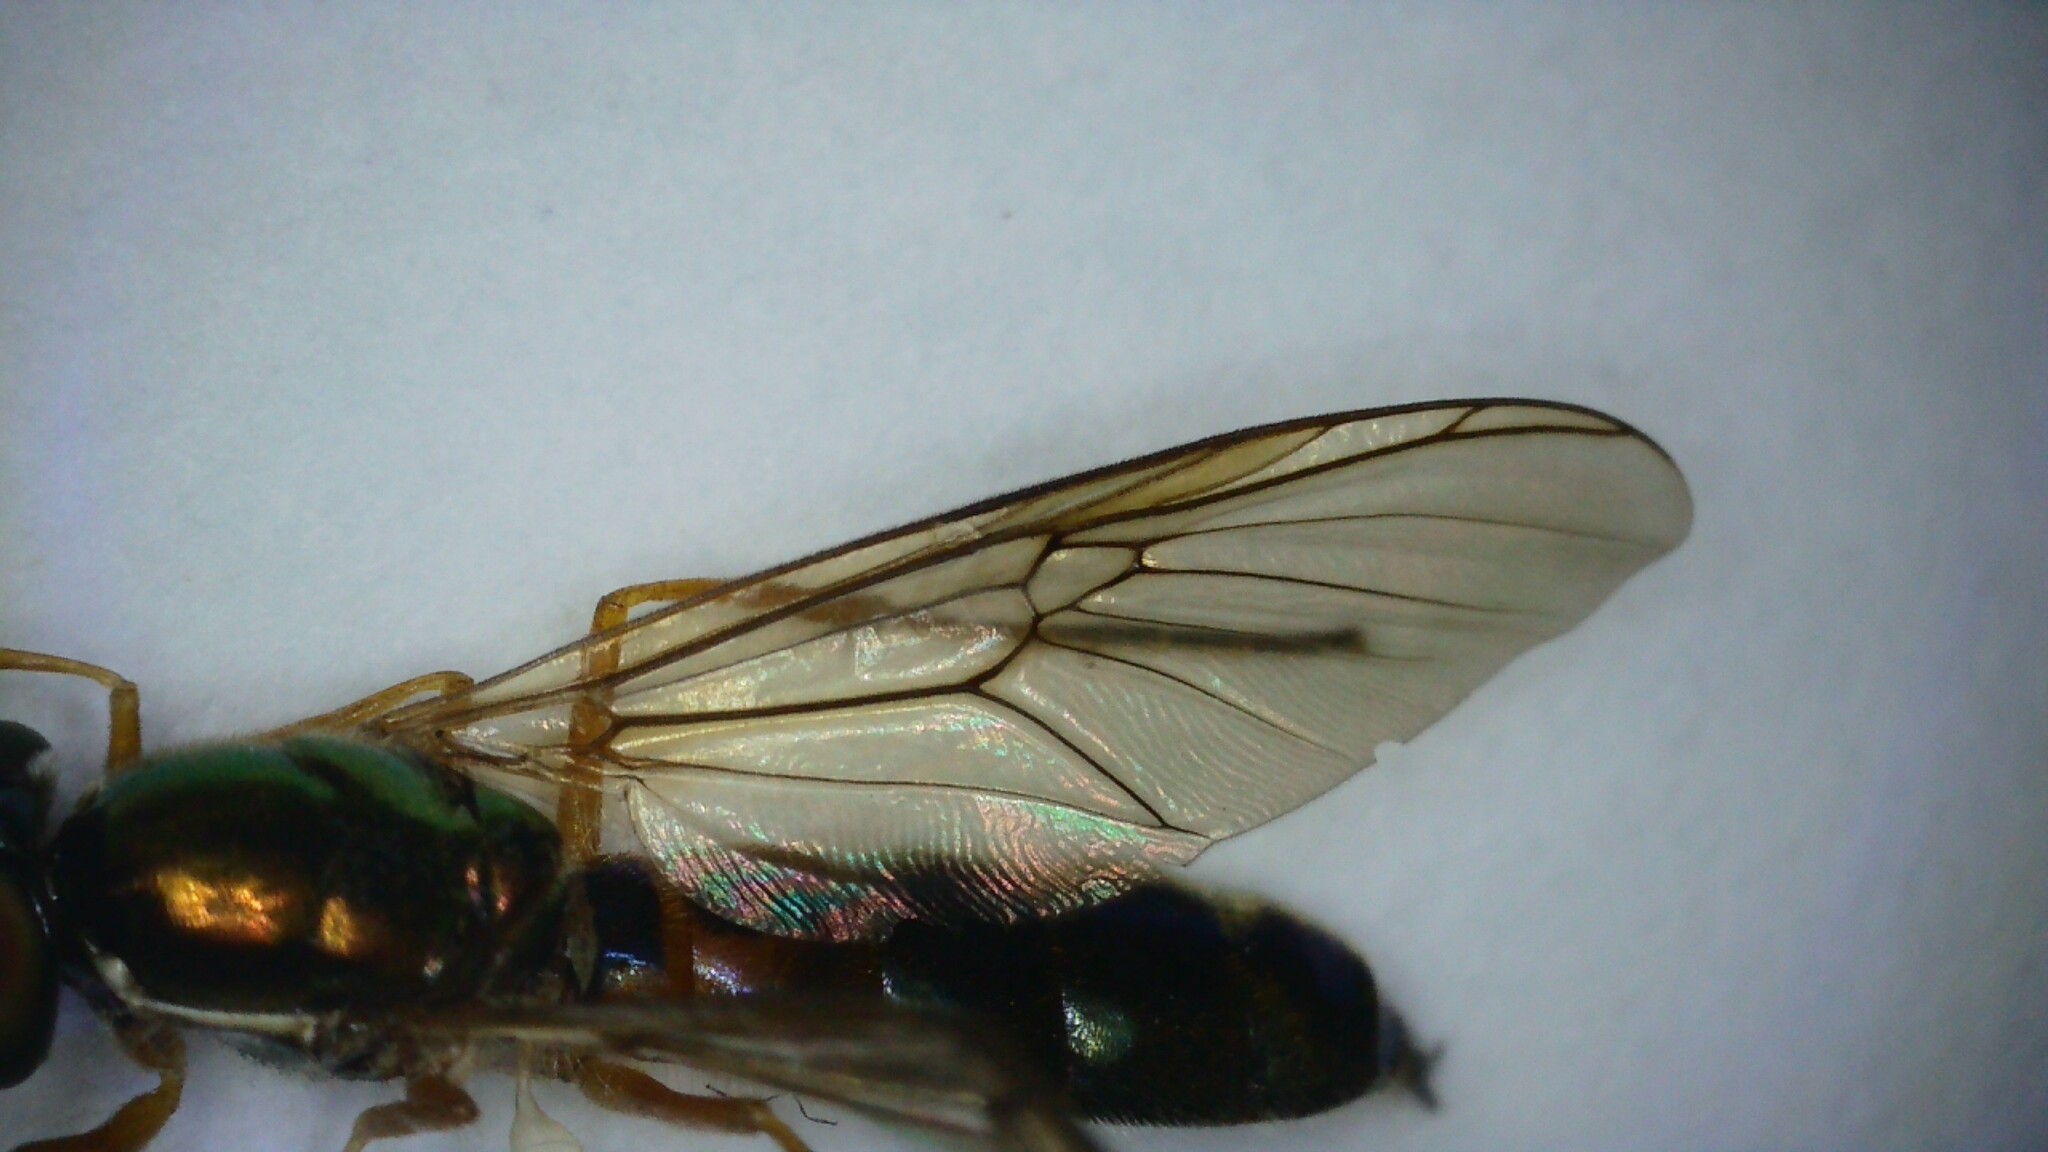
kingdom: Animalia
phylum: Arthropoda
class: Insecta
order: Diptera
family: Stratiomyidae
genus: Sargus
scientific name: Sargus bipunctatus
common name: Twin-spot centurion
